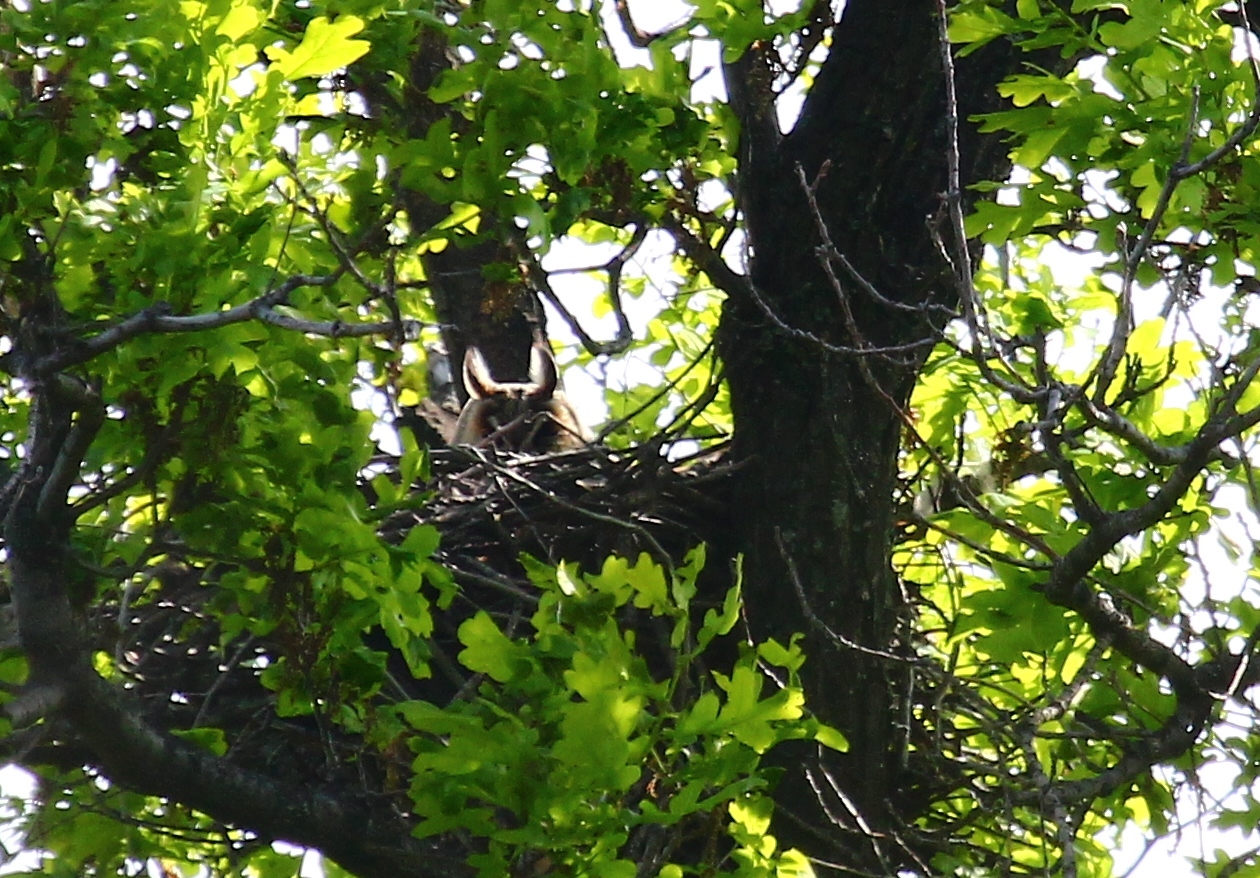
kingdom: Animalia
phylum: Chordata
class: Aves
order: Strigiformes
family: Strigidae
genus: Asio
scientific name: Asio otus
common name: Long-eared owl
